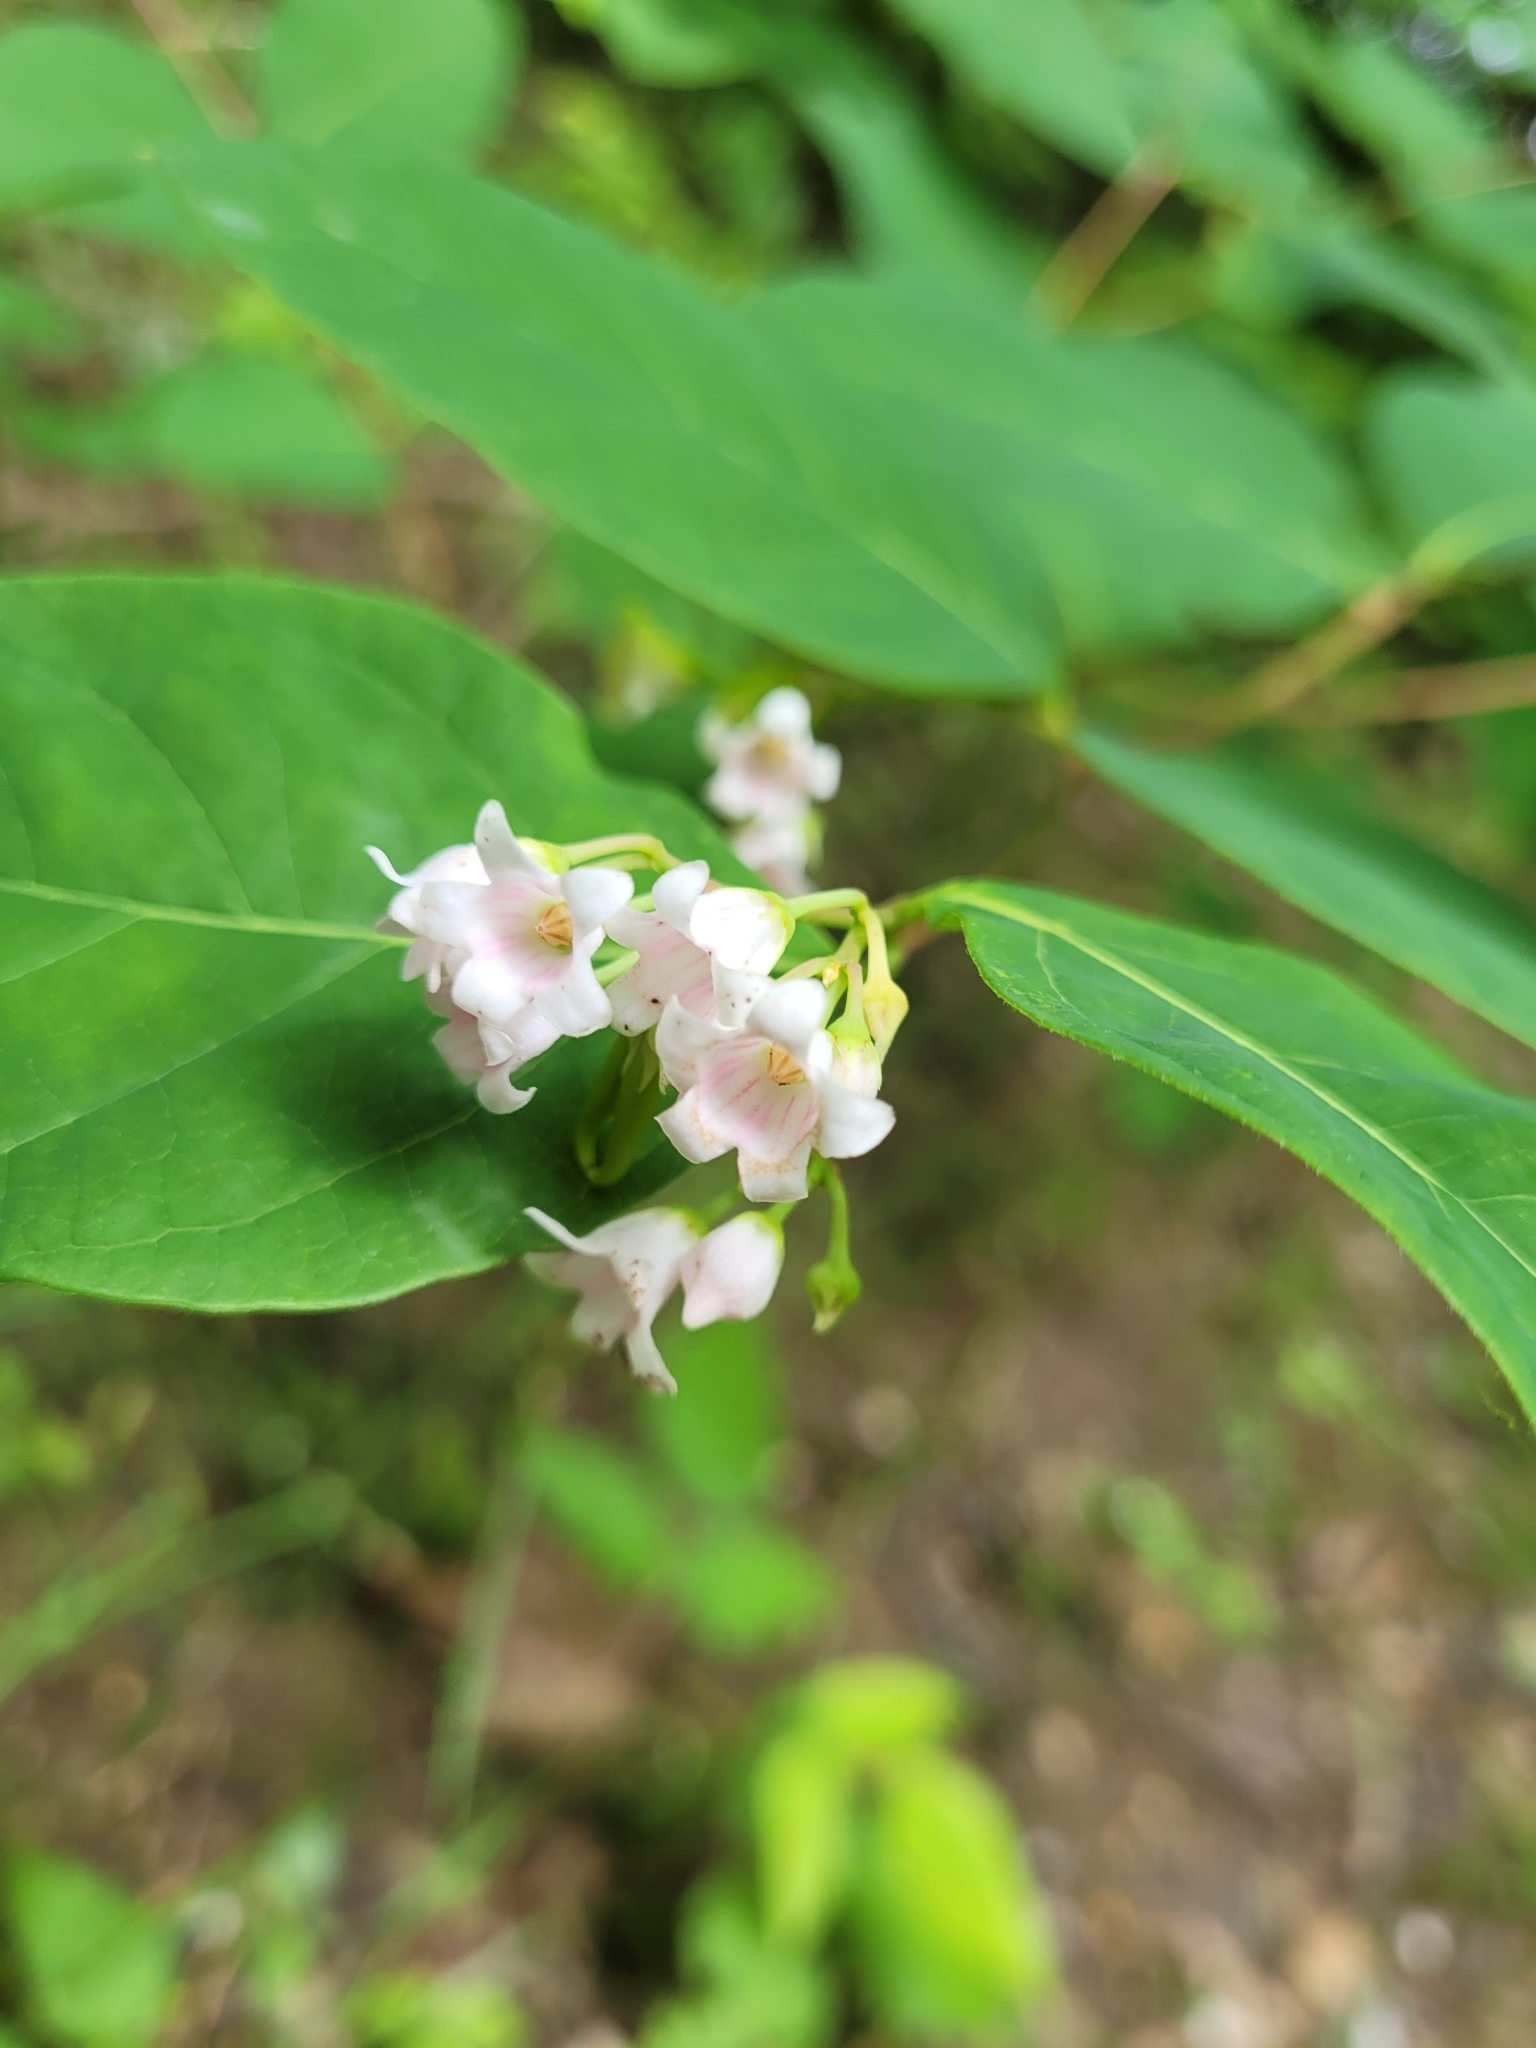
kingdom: Plantae
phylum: Tracheophyta
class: Magnoliopsida
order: Gentianales
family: Apocynaceae
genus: Apocynum
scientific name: Apocynum androsaemifolium
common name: Spreading dogbane
